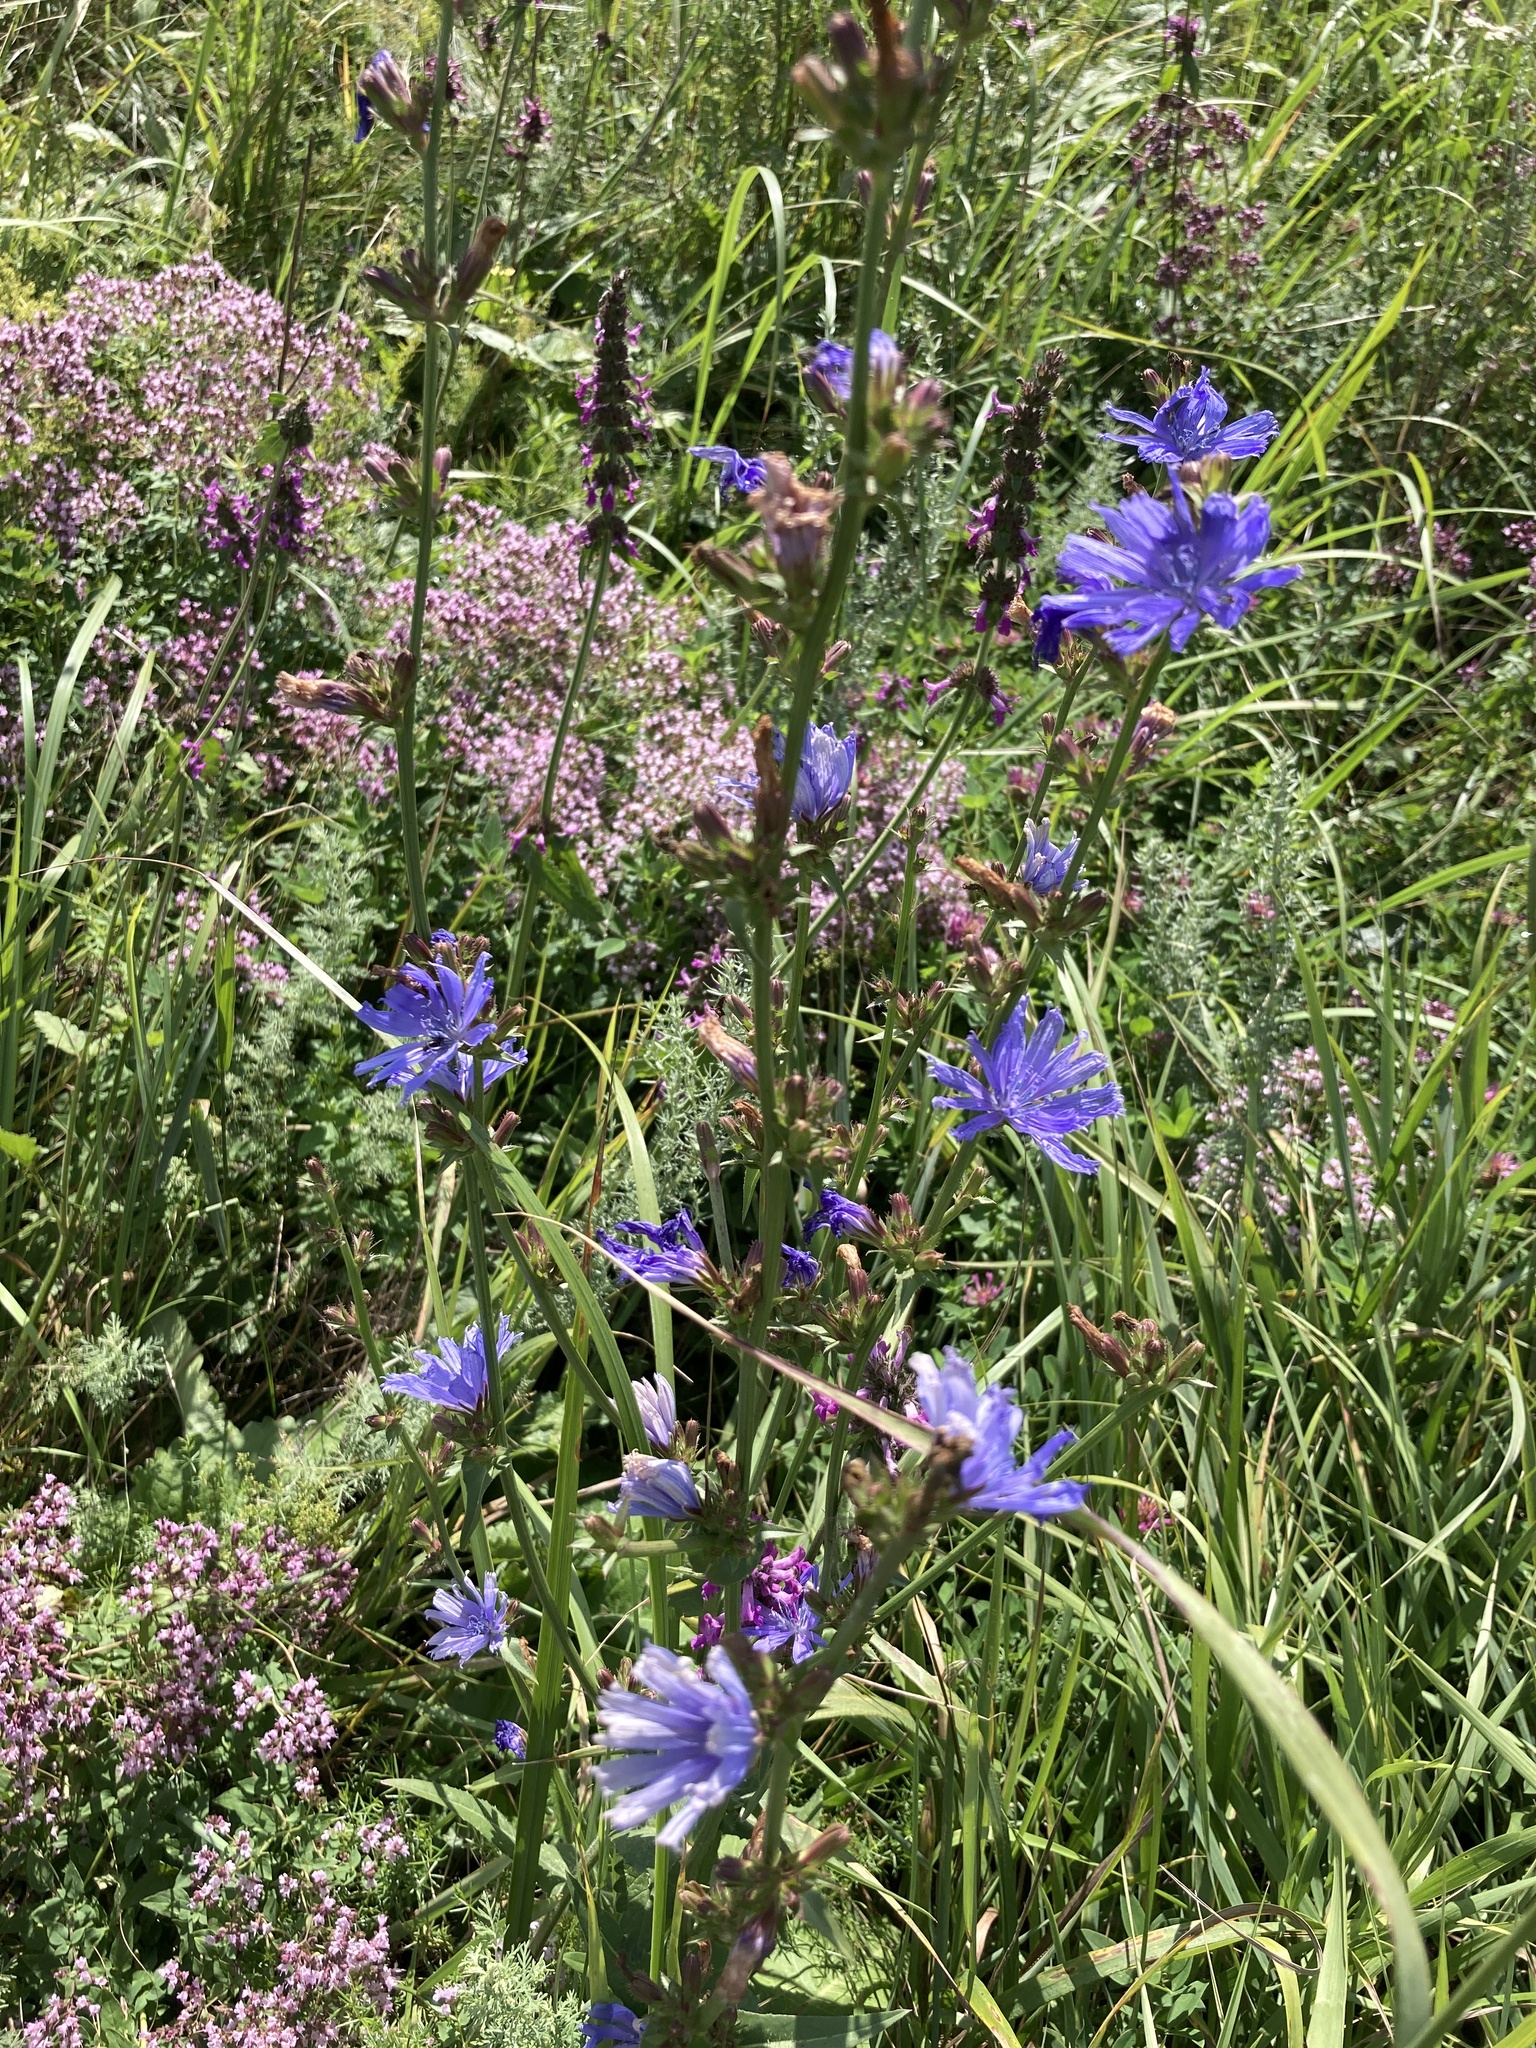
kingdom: Plantae
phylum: Tracheophyta
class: Magnoliopsida
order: Asterales
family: Asteraceae
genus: Cichorium
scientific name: Cichorium intybus
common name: Chicory
